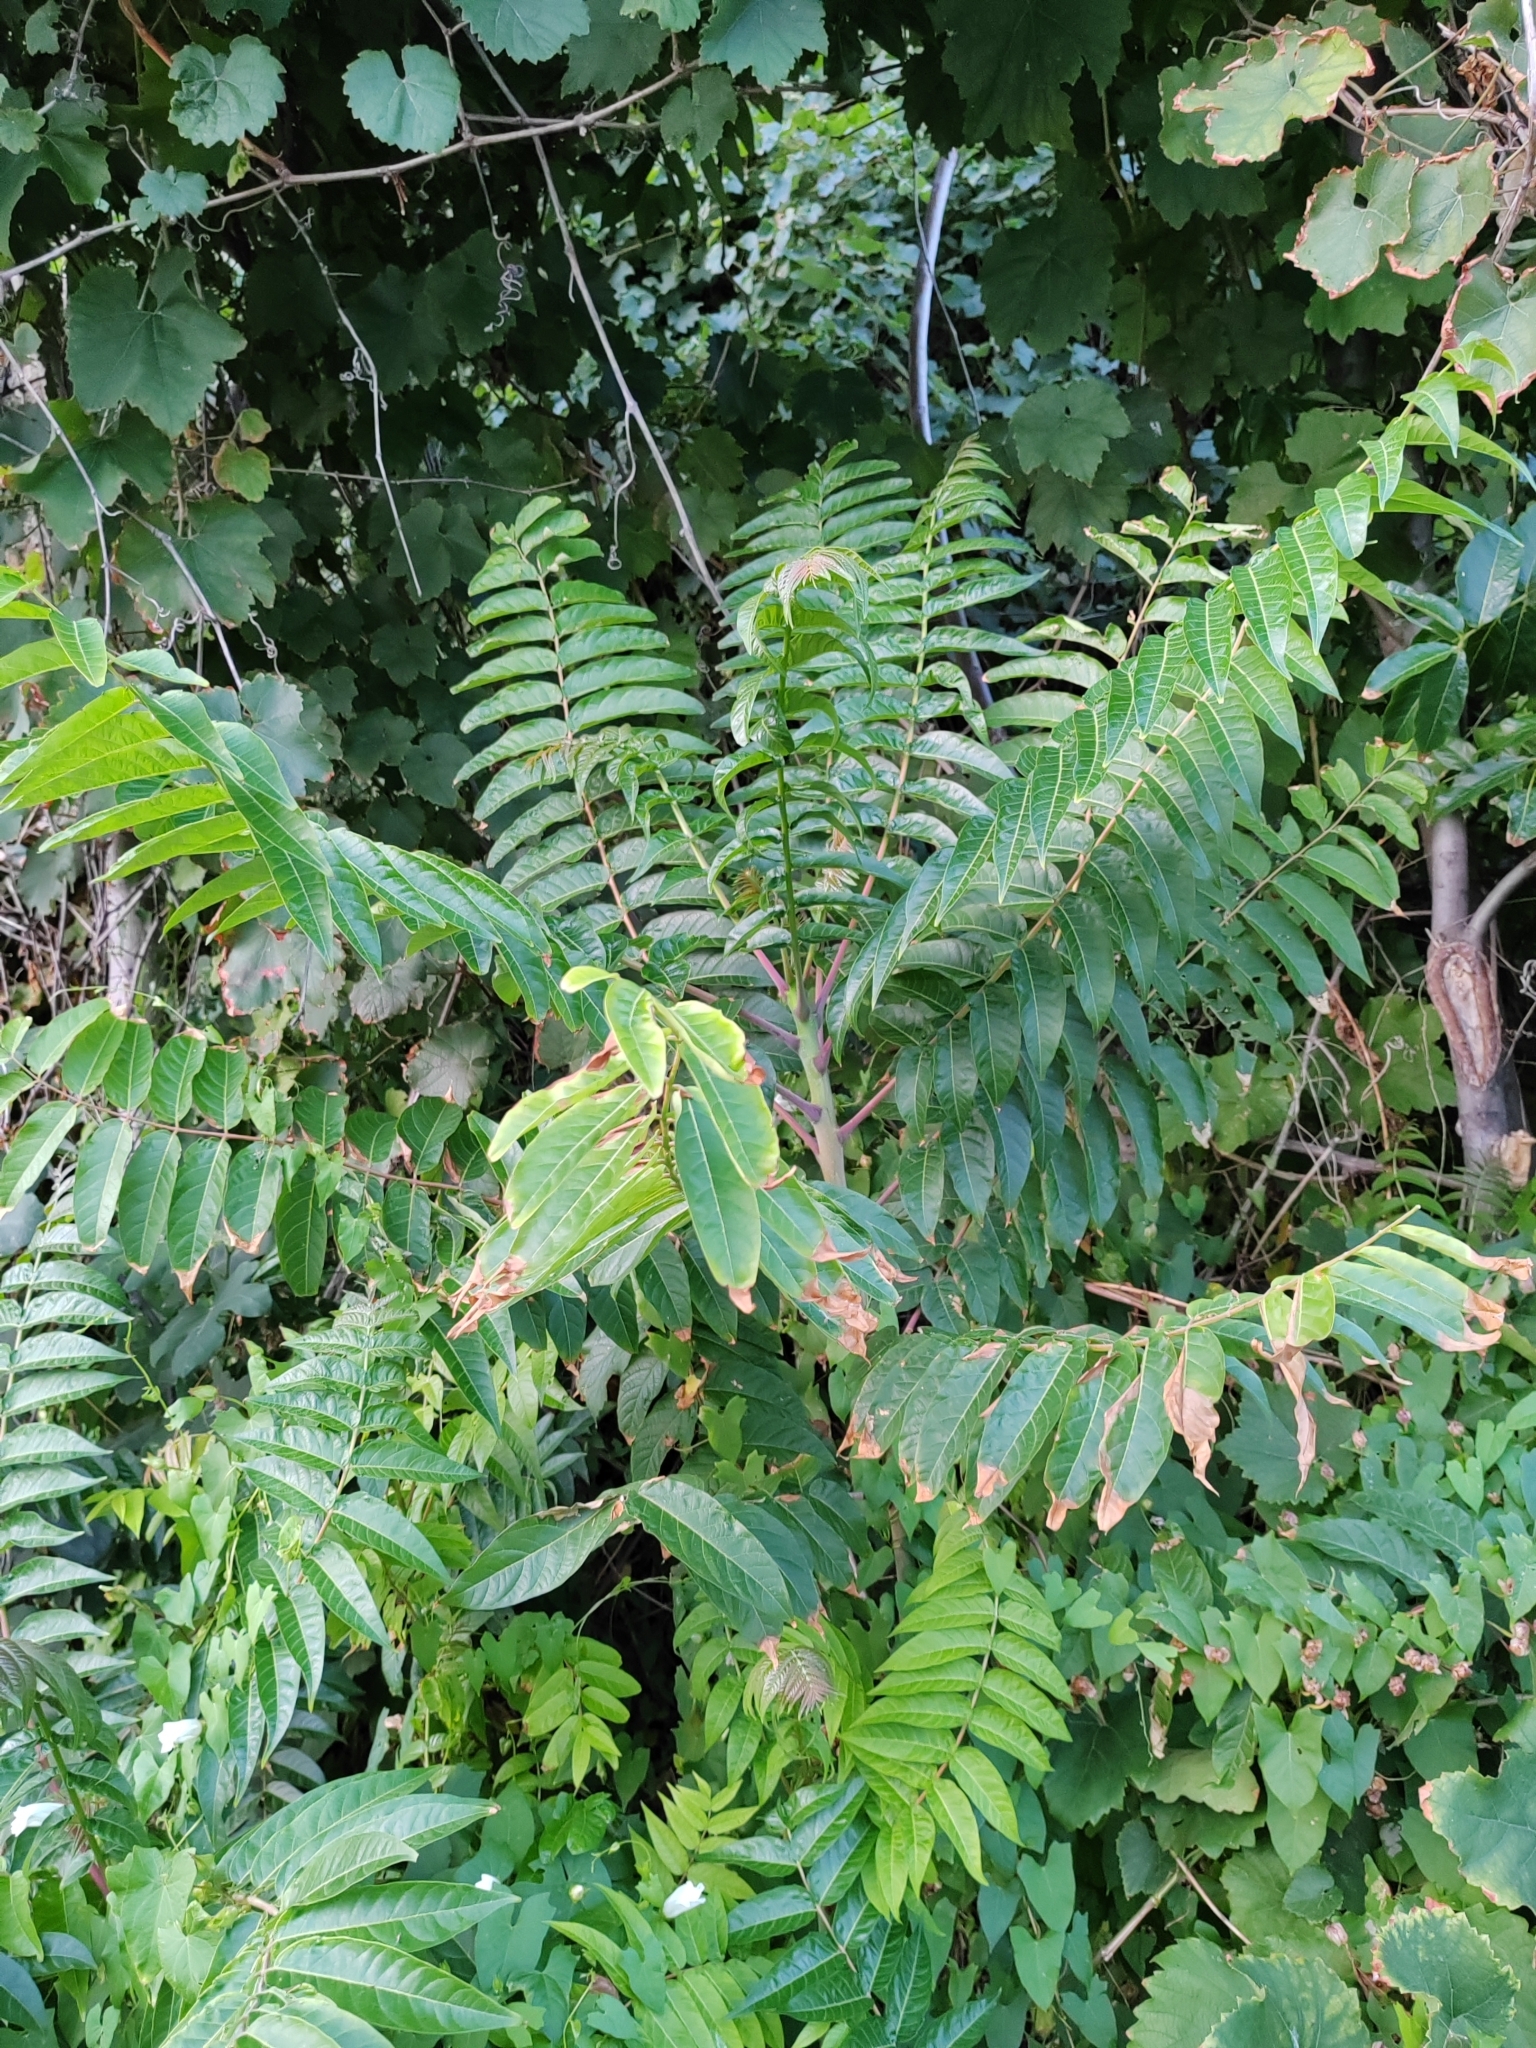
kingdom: Plantae
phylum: Tracheophyta
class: Magnoliopsida
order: Sapindales
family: Simaroubaceae
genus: Ailanthus
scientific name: Ailanthus altissima
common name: Tree-of-heaven
